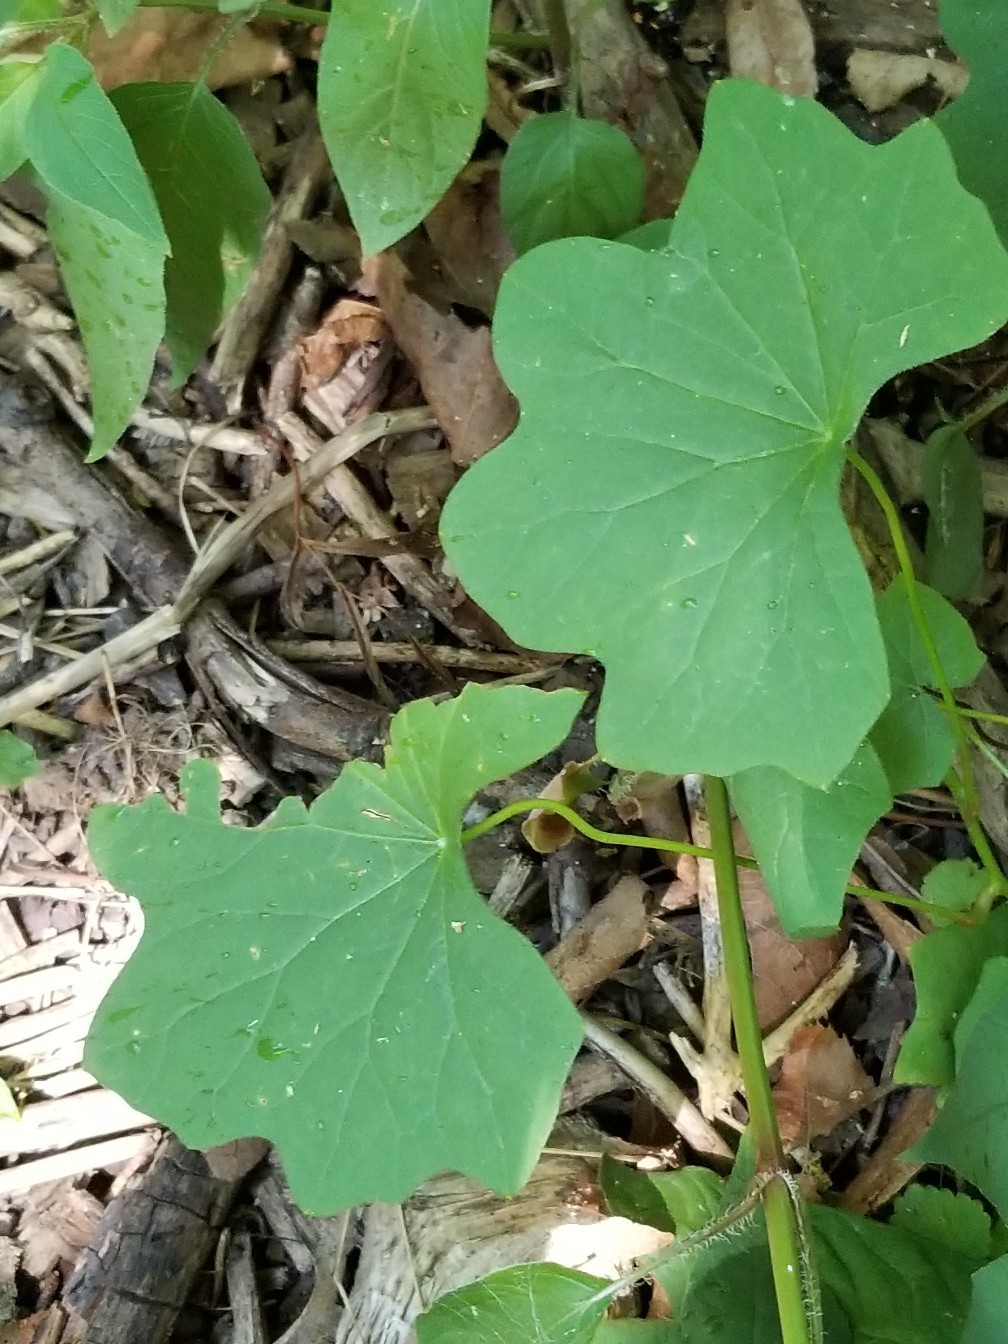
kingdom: Plantae
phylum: Tracheophyta
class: Magnoliopsida
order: Ranunculales
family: Menispermaceae
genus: Menispermum
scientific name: Menispermum canadense
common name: Moonseed
